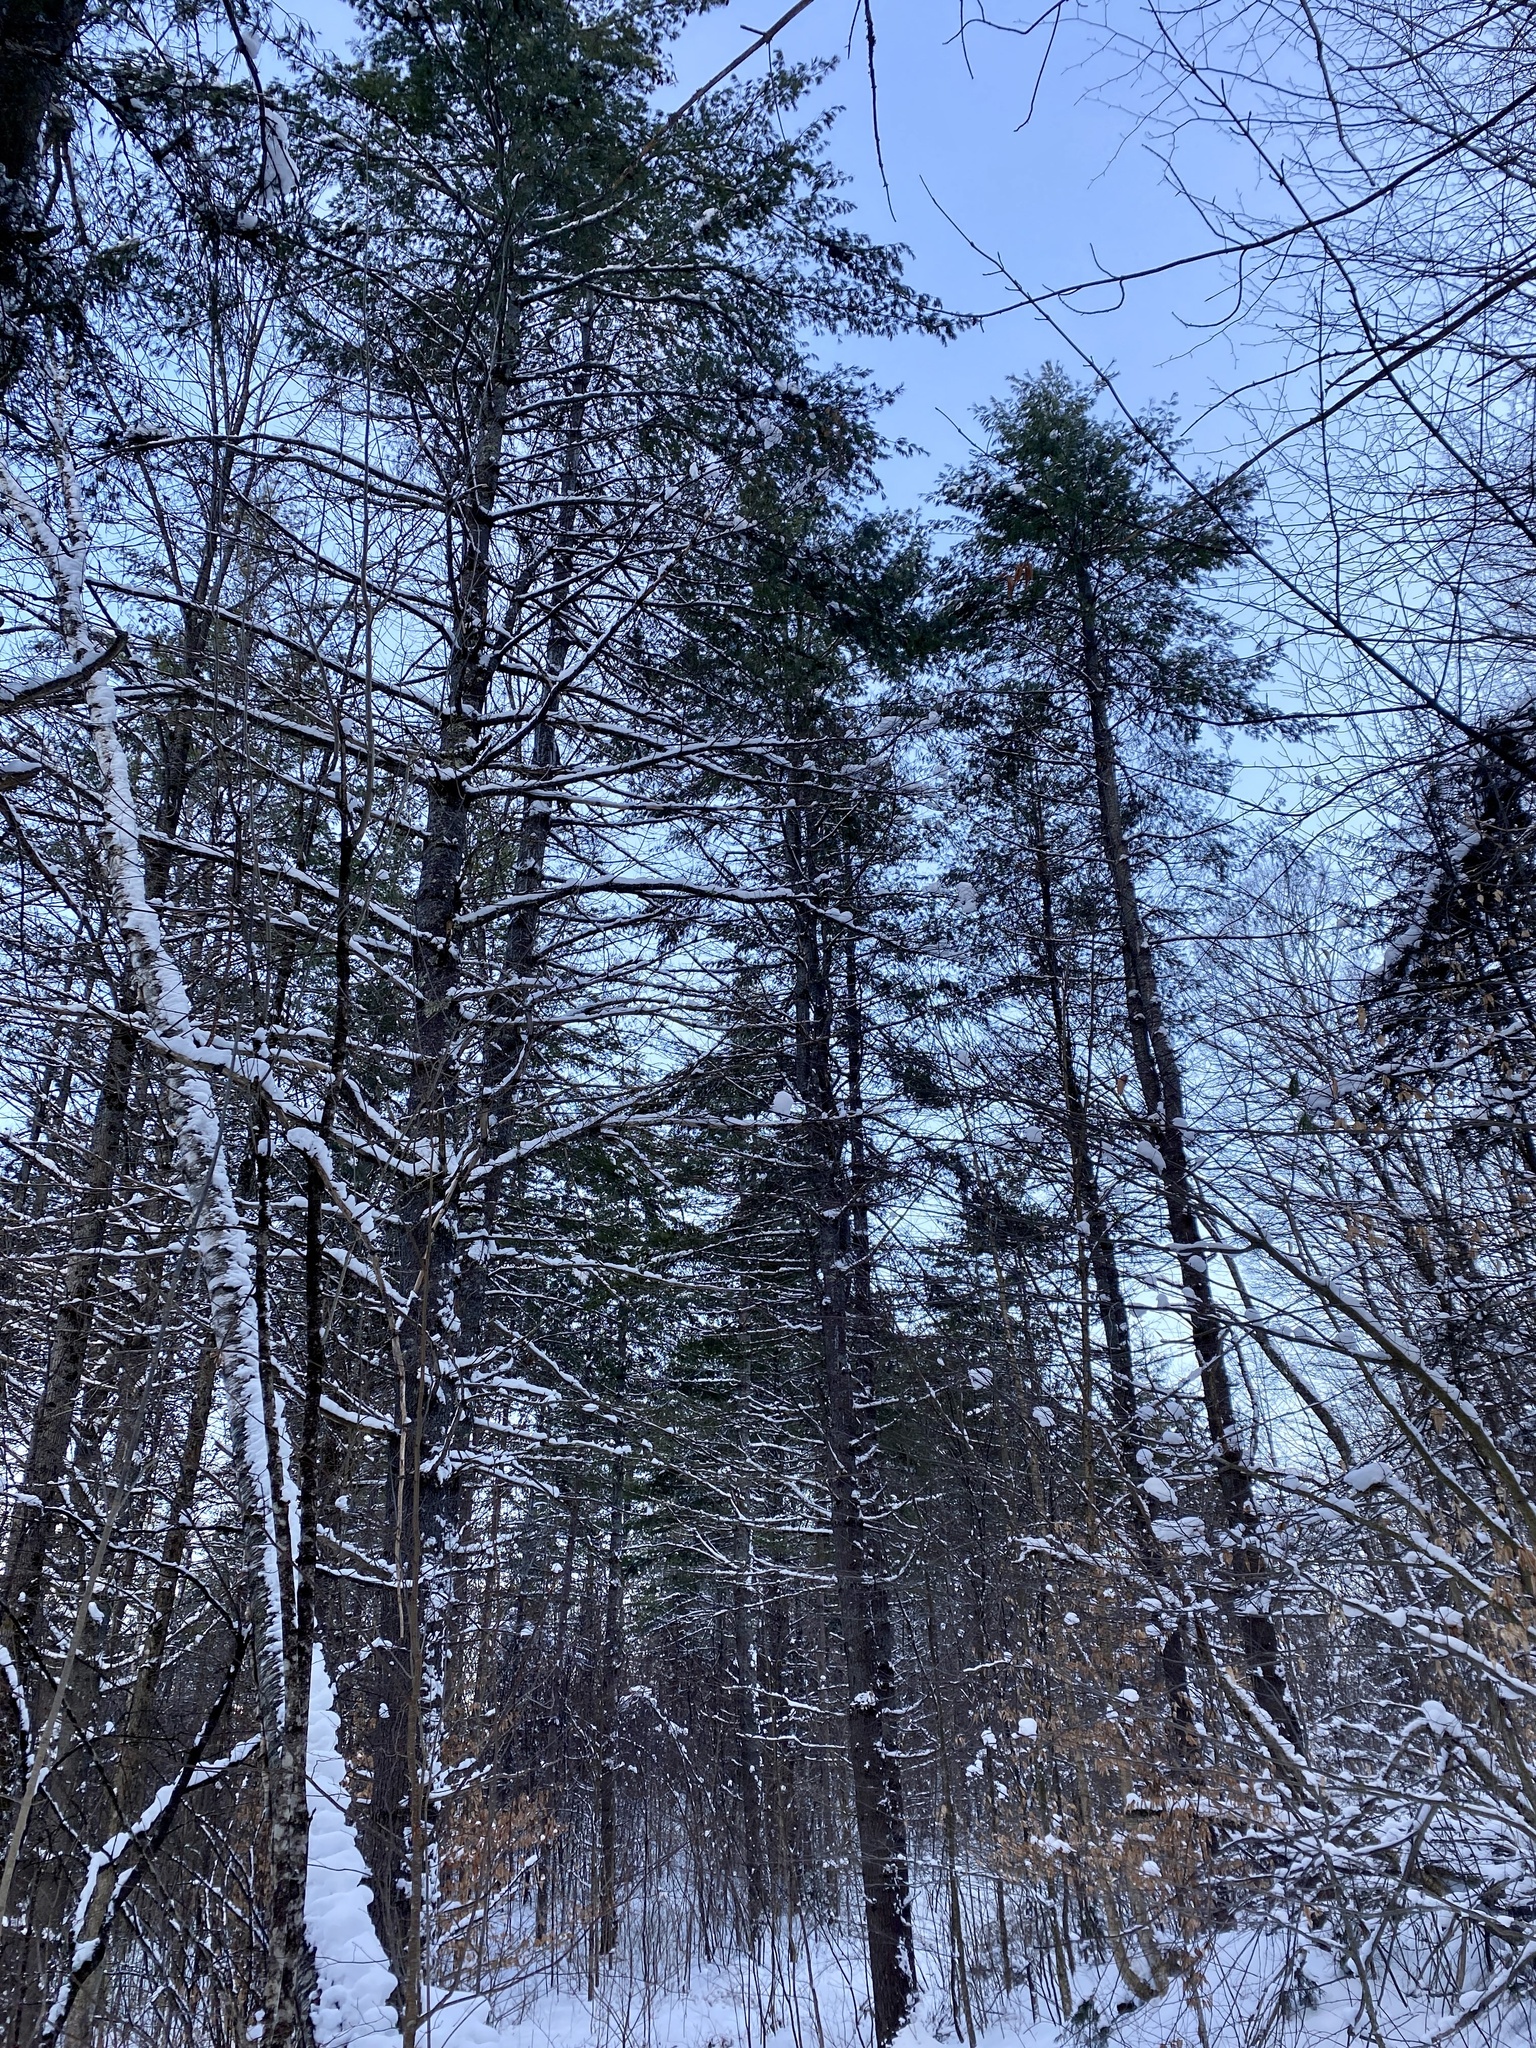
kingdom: Plantae
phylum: Tracheophyta
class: Pinopsida
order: Pinales
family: Pinaceae
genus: Pinus
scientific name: Pinus strobus
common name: Weymouth pine
